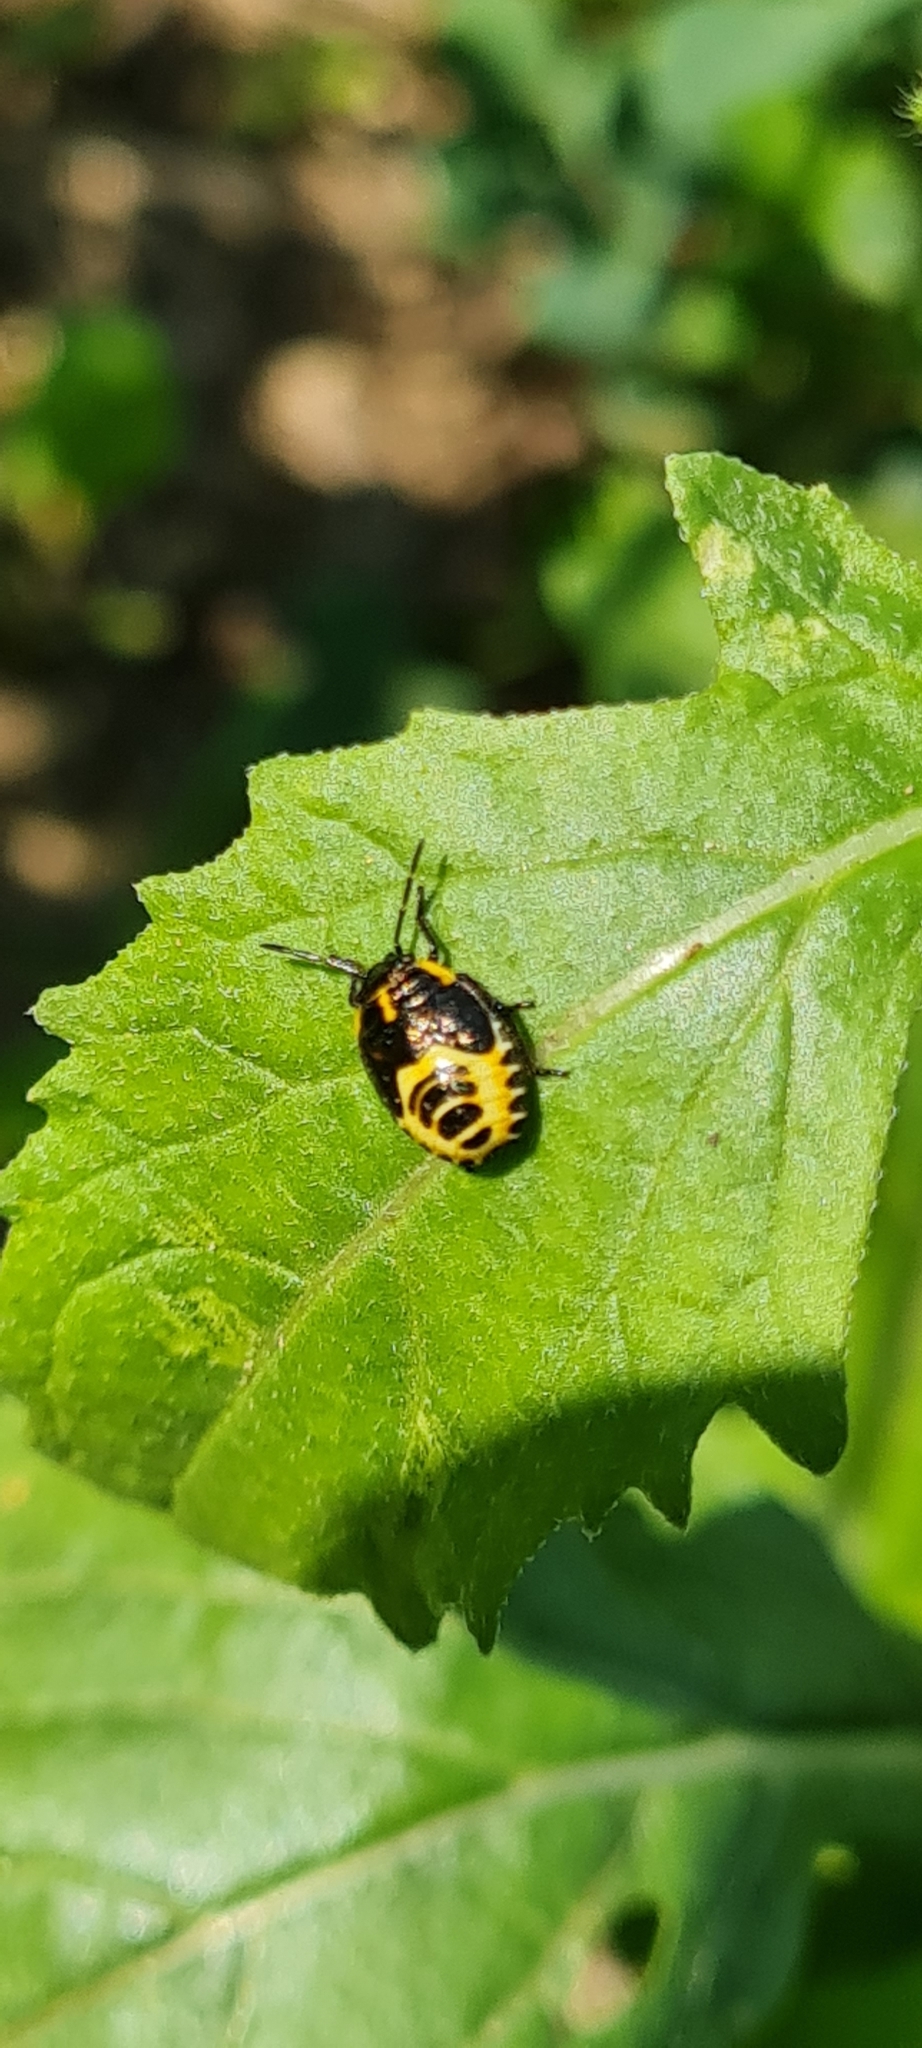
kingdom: Animalia
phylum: Arthropoda
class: Insecta
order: Hemiptera
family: Pentatomidae
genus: Eurydema
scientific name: Eurydema oleracea
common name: Cabbage bug
